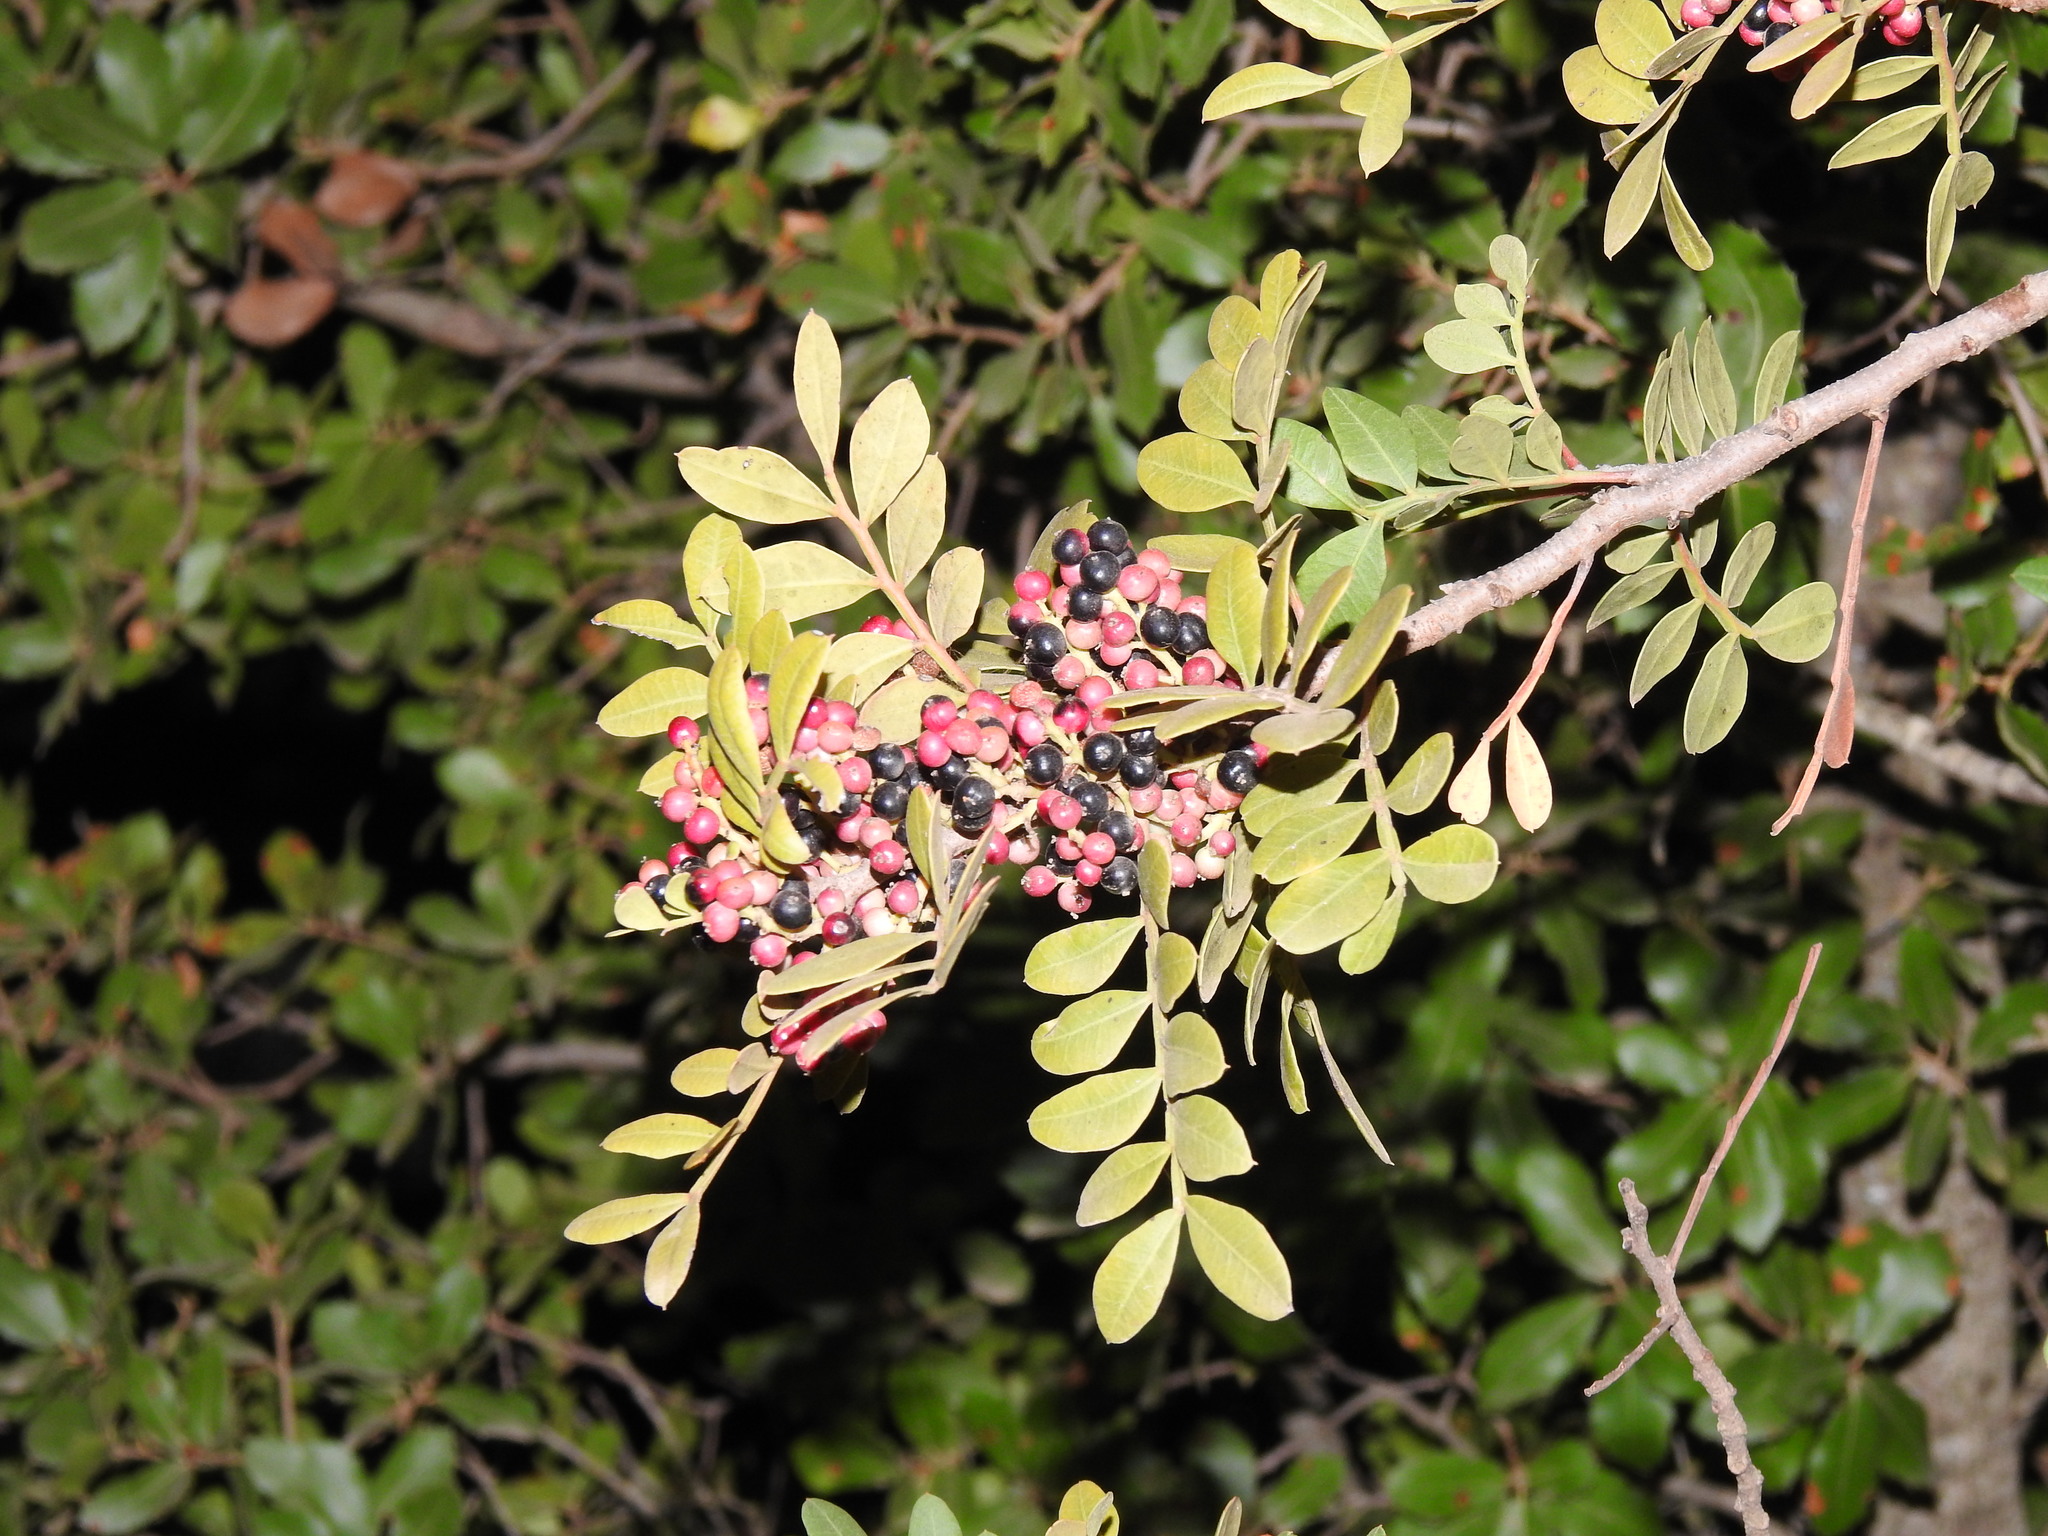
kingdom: Plantae
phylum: Tracheophyta
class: Magnoliopsida
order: Sapindales
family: Anacardiaceae
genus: Pistacia
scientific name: Pistacia lentiscus
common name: Lentisk
